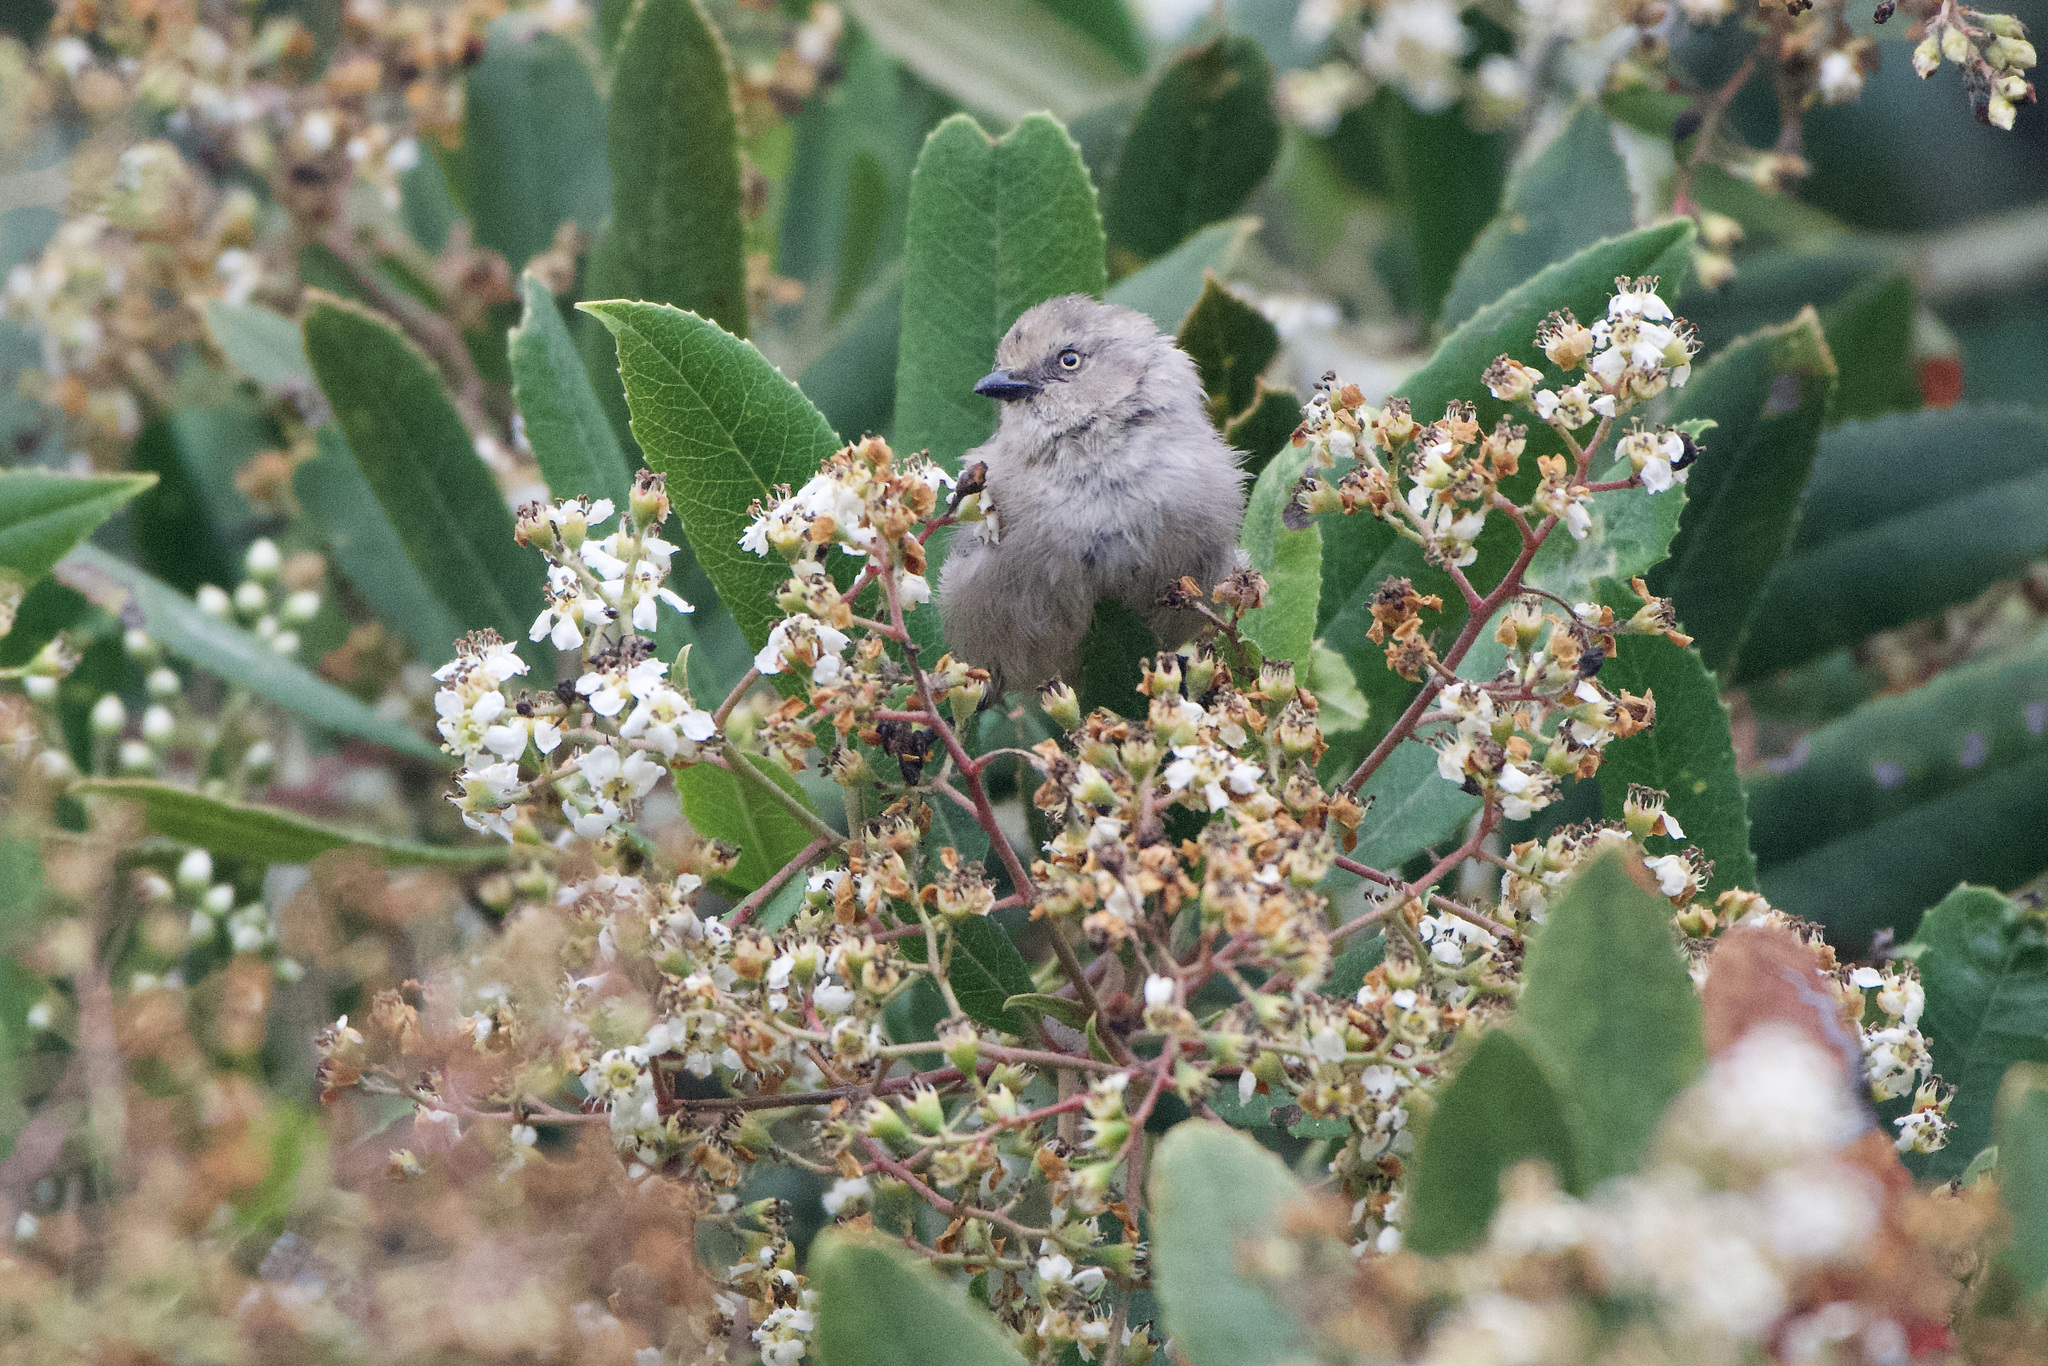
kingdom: Animalia
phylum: Chordata
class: Aves
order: Passeriformes
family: Aegithalidae
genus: Psaltriparus
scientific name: Psaltriparus minimus
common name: American bushtit
